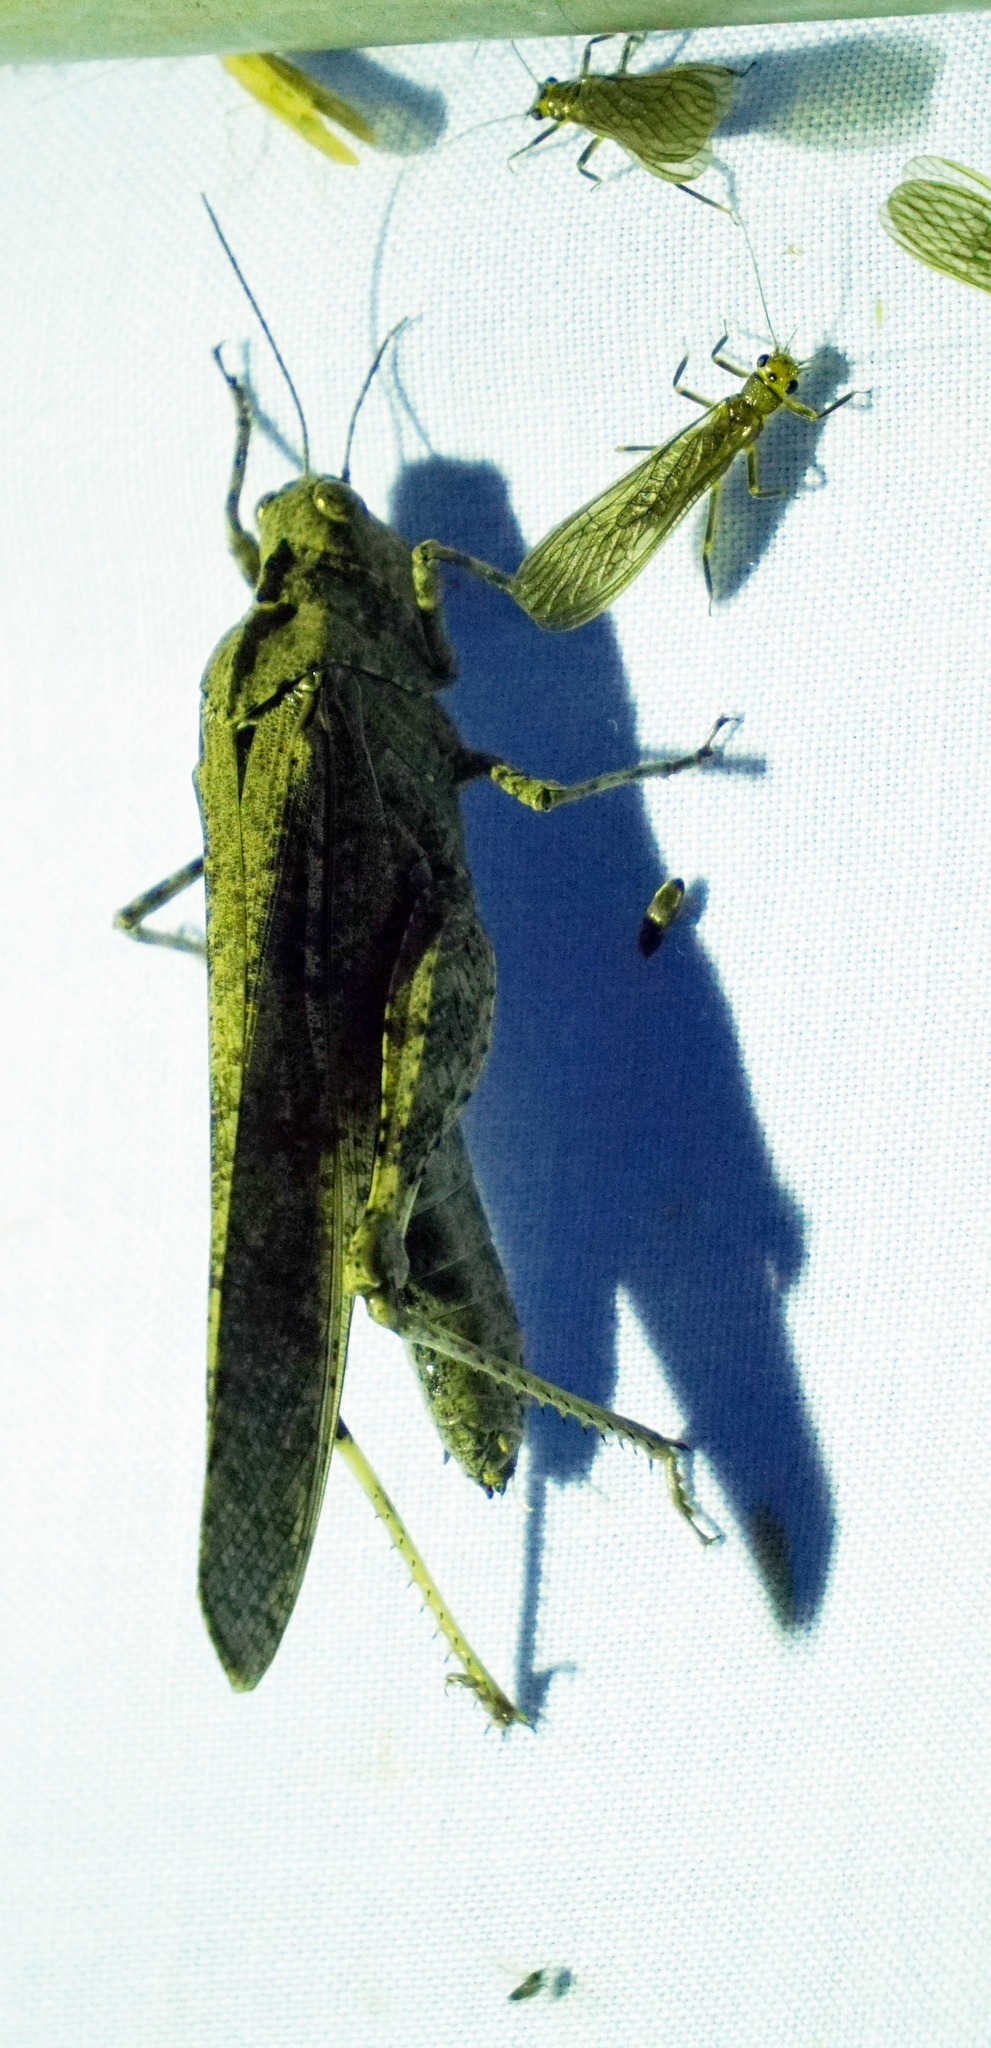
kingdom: Animalia
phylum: Arthropoda
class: Insecta
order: Orthoptera
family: Acrididae
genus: Dissosteira
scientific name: Dissosteira carolina
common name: Carolina grasshopper
